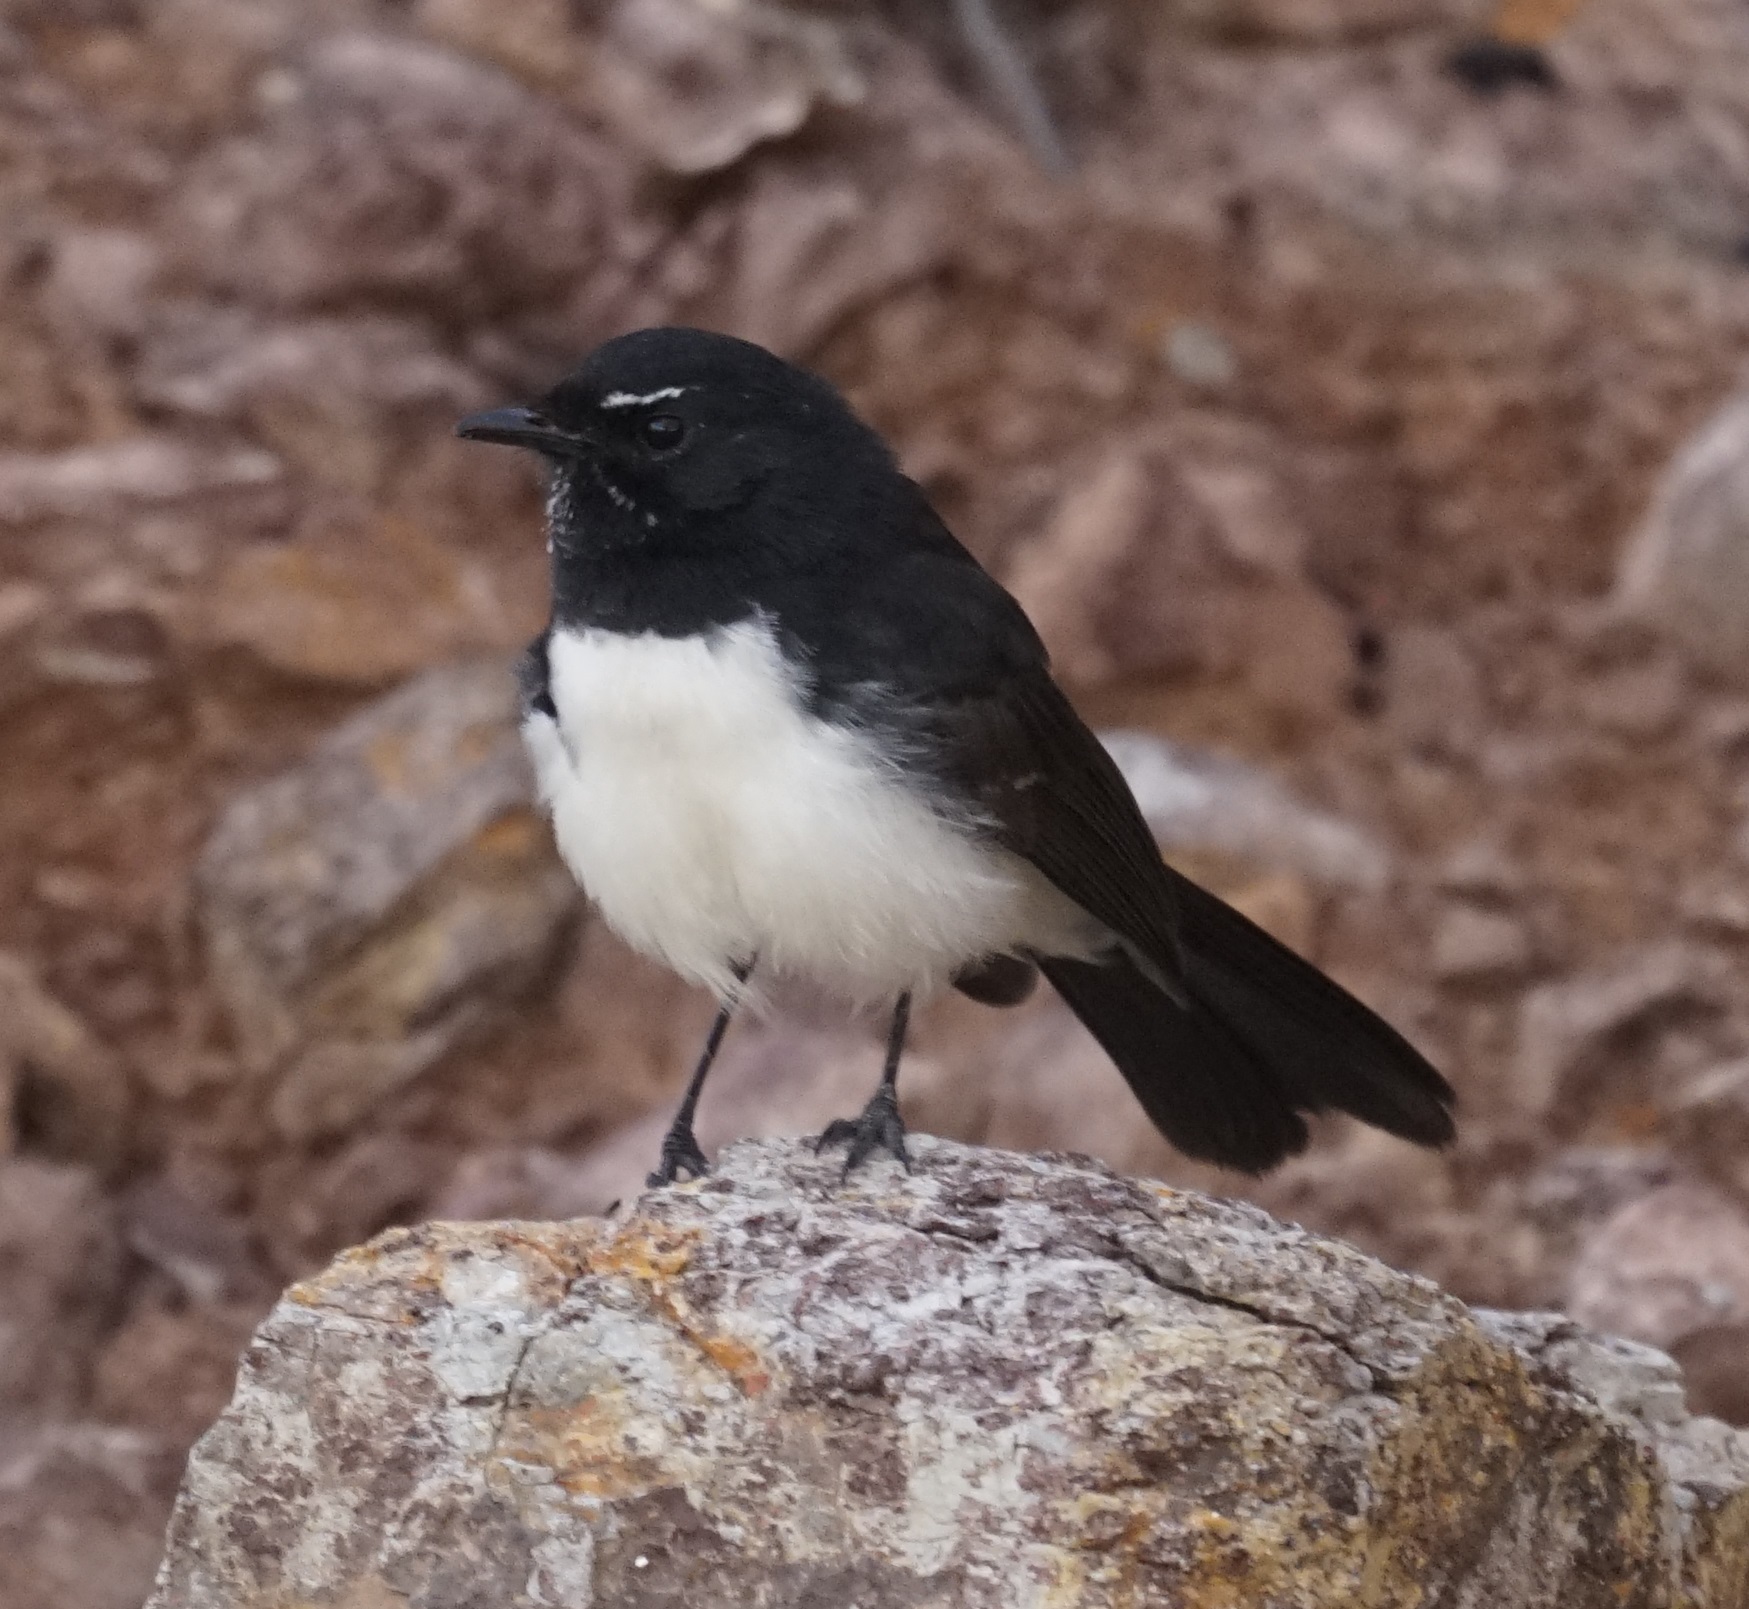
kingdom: Animalia
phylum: Chordata
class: Aves
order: Passeriformes
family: Rhipiduridae
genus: Rhipidura
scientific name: Rhipidura leucophrys
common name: Willie wagtail
